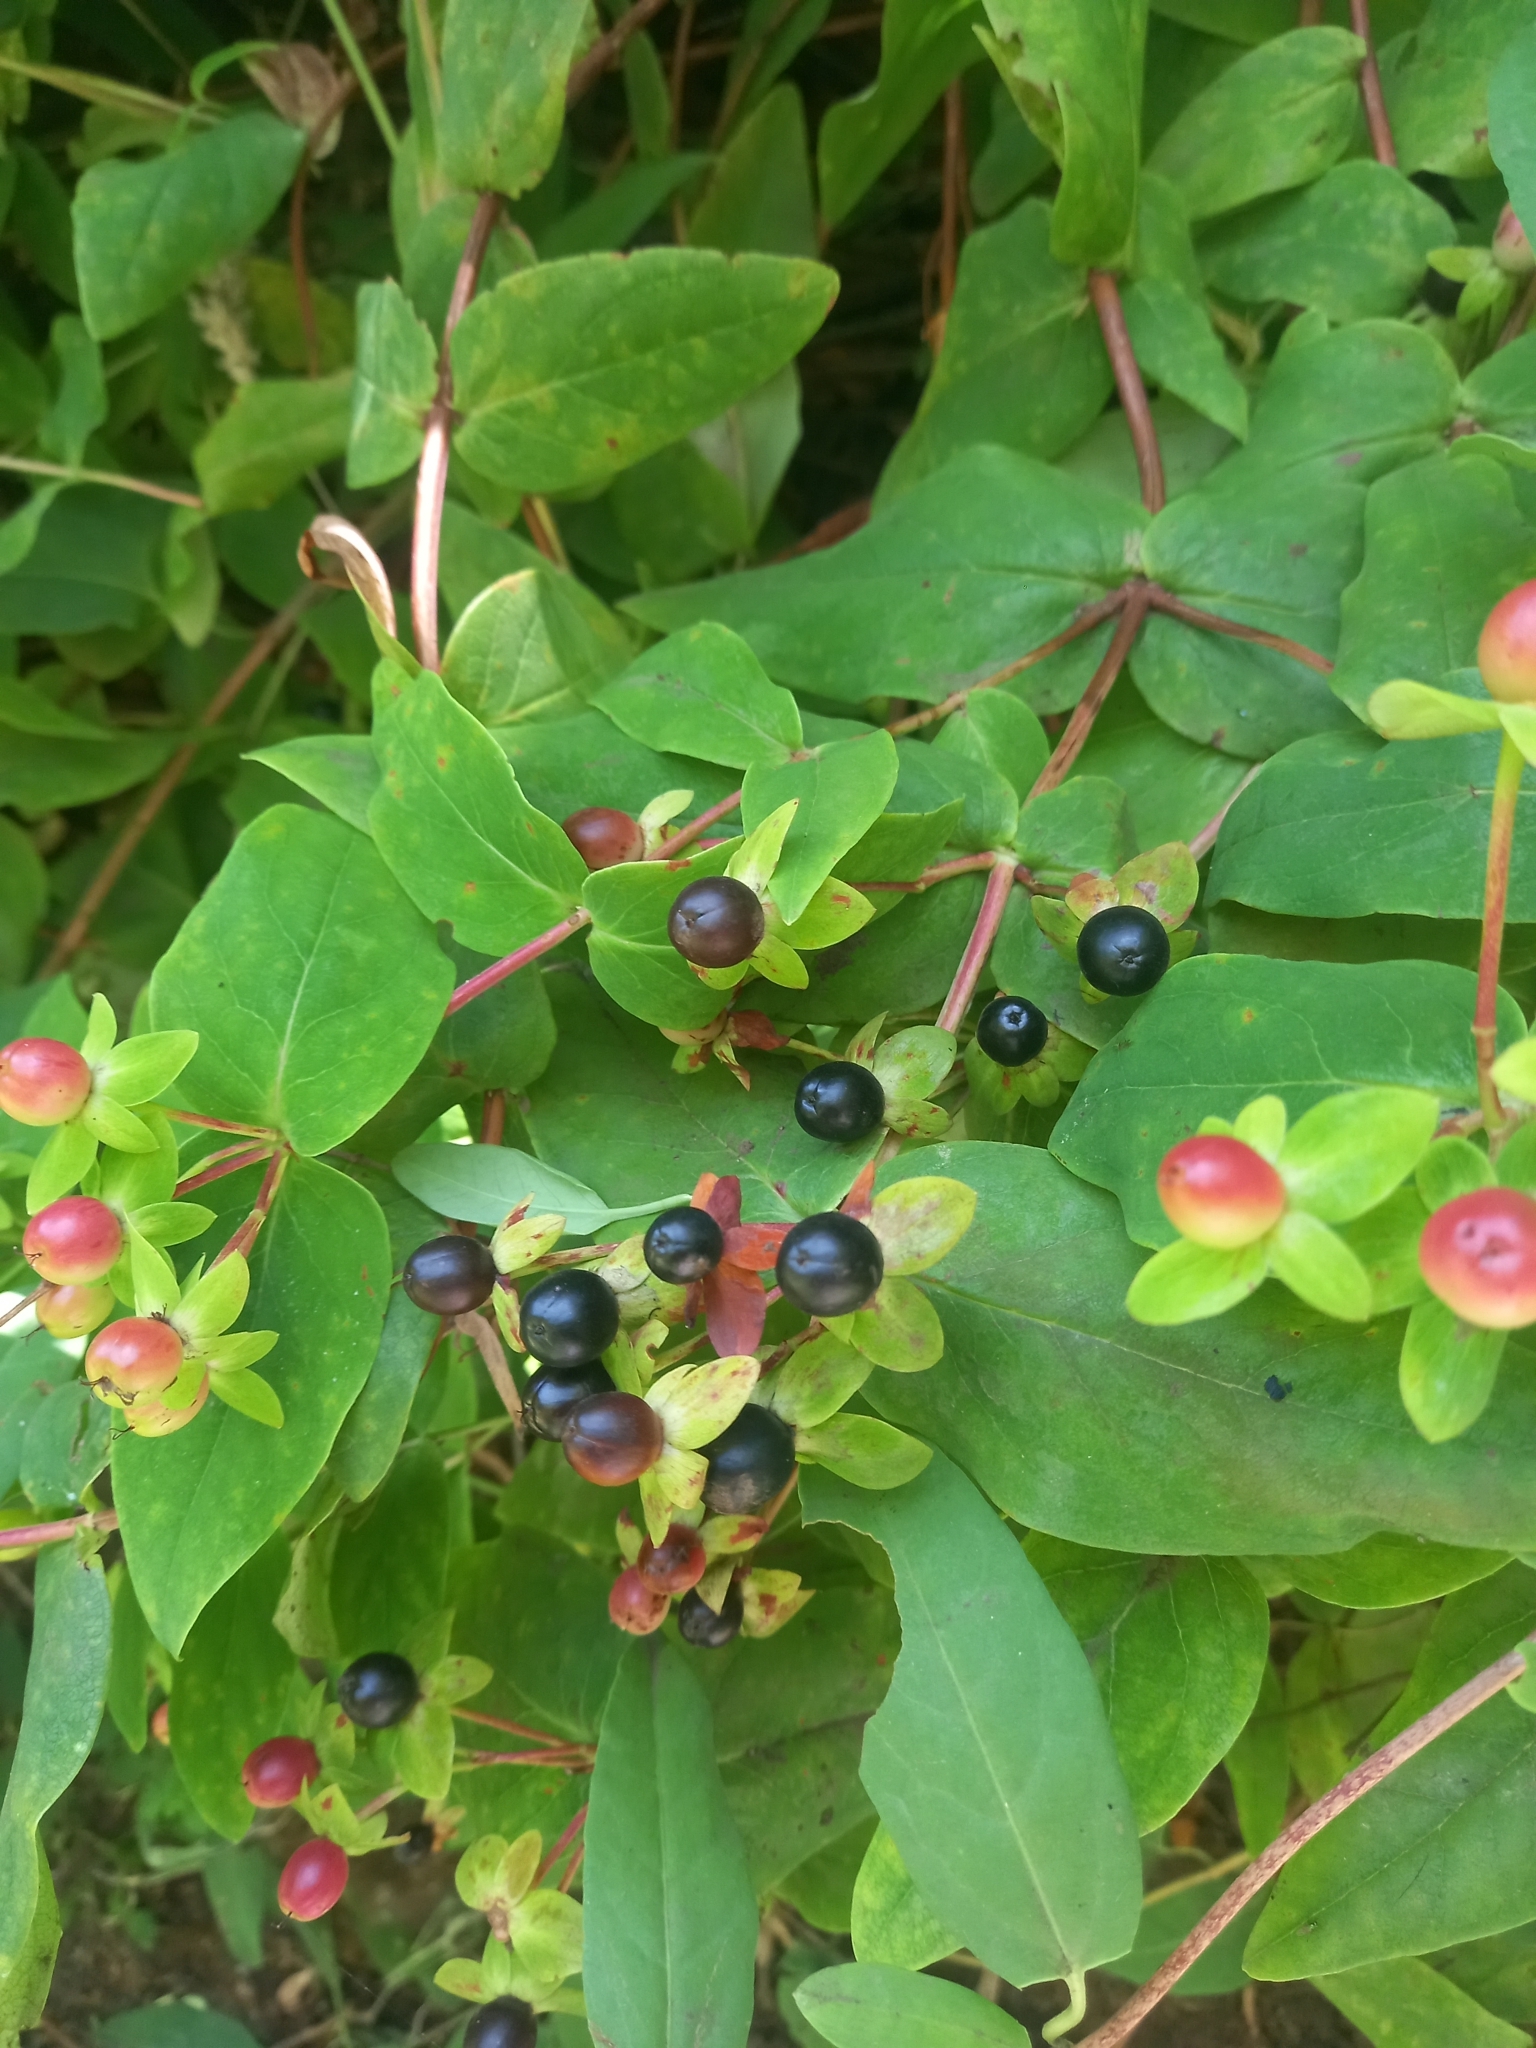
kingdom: Plantae
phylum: Tracheophyta
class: Magnoliopsida
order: Malpighiales
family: Hypericaceae
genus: Hypericum
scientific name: Hypericum androsaemum
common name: Sweet-amber
